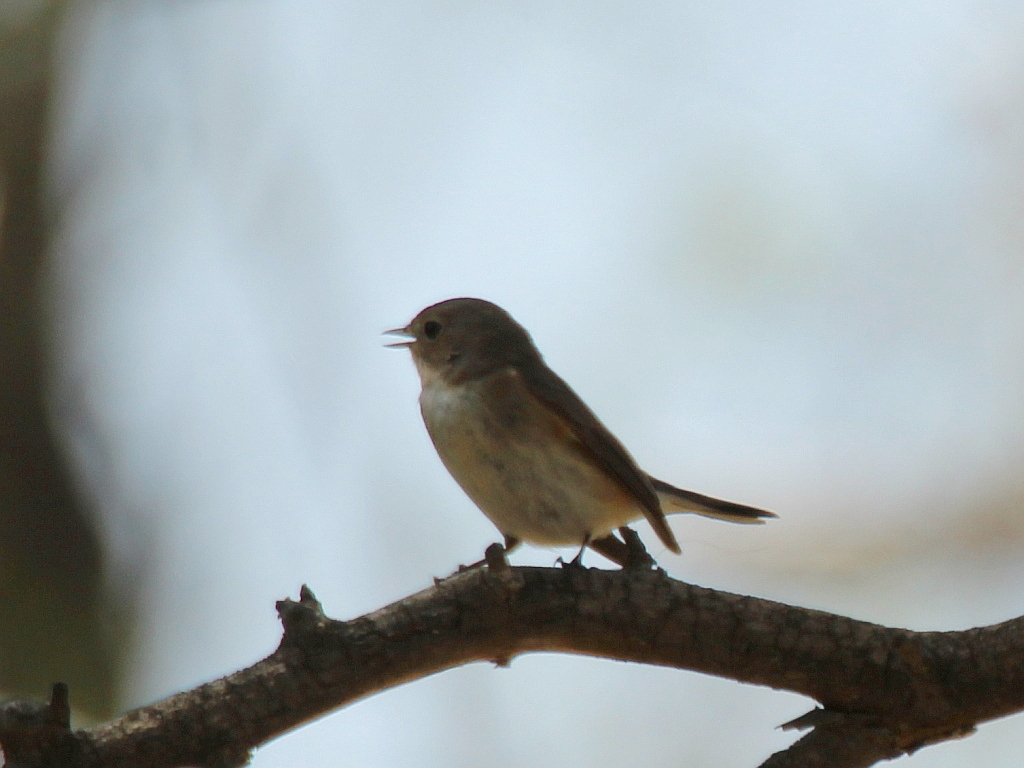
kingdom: Animalia
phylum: Chordata
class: Aves
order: Passeriformes
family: Muscicapidae
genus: Ficedula
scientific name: Ficedula parva
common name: Red-breasted flycatcher
